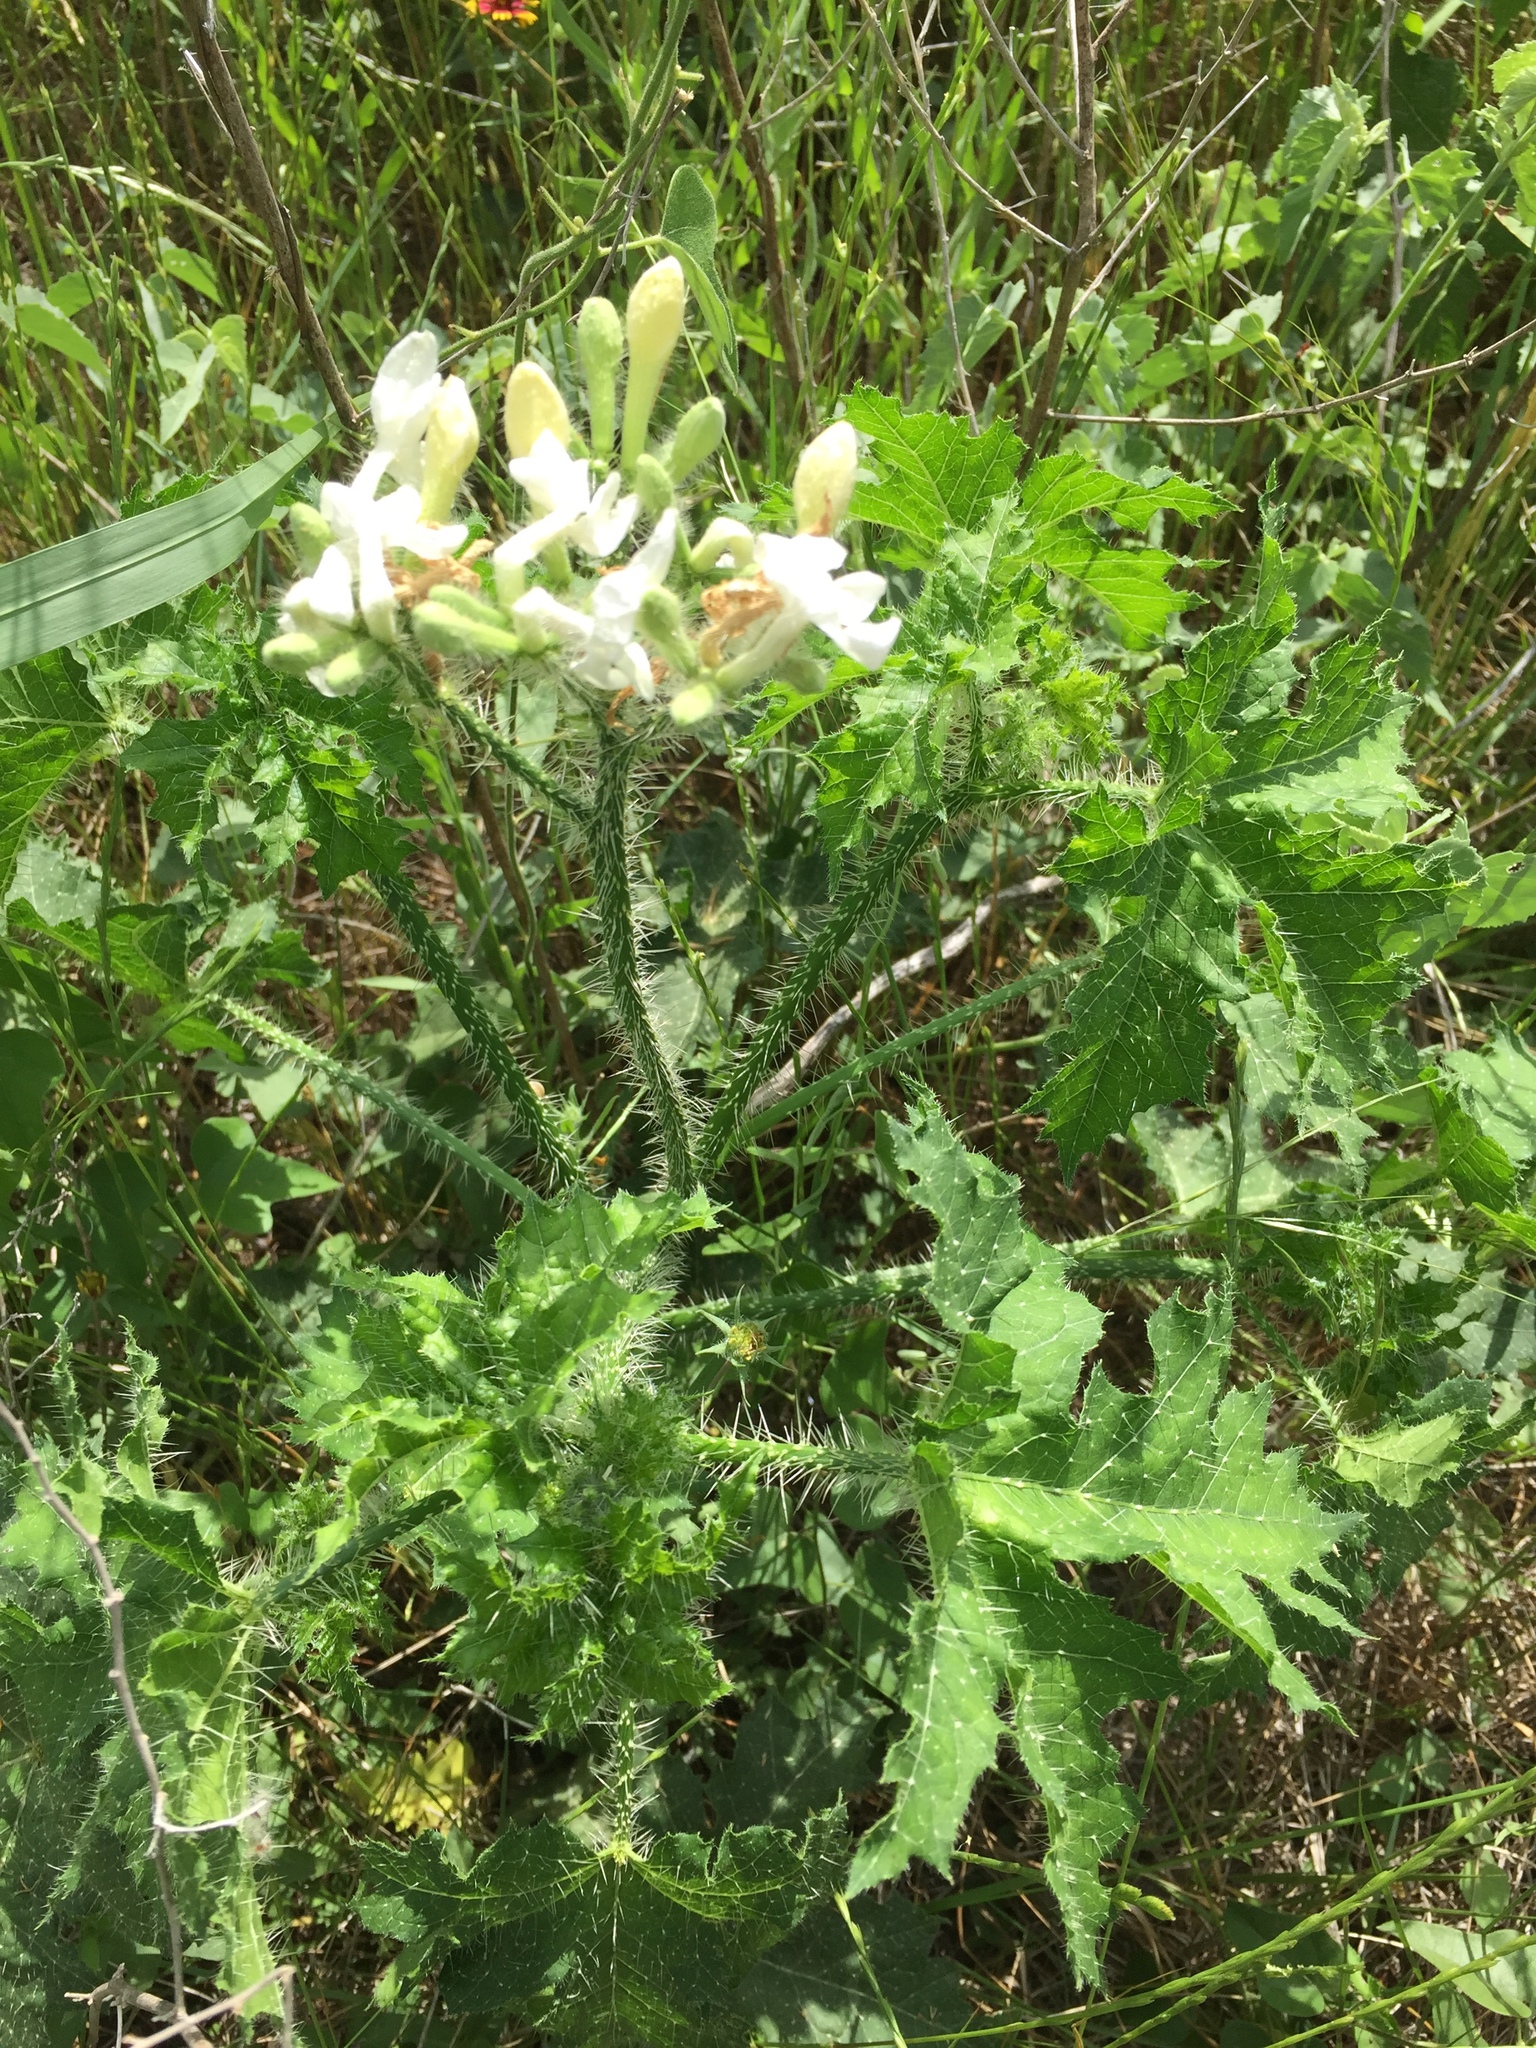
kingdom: Plantae
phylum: Tracheophyta
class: Magnoliopsida
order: Malpighiales
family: Euphorbiaceae
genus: Cnidoscolus
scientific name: Cnidoscolus texanus
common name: Texas bull-nettle
